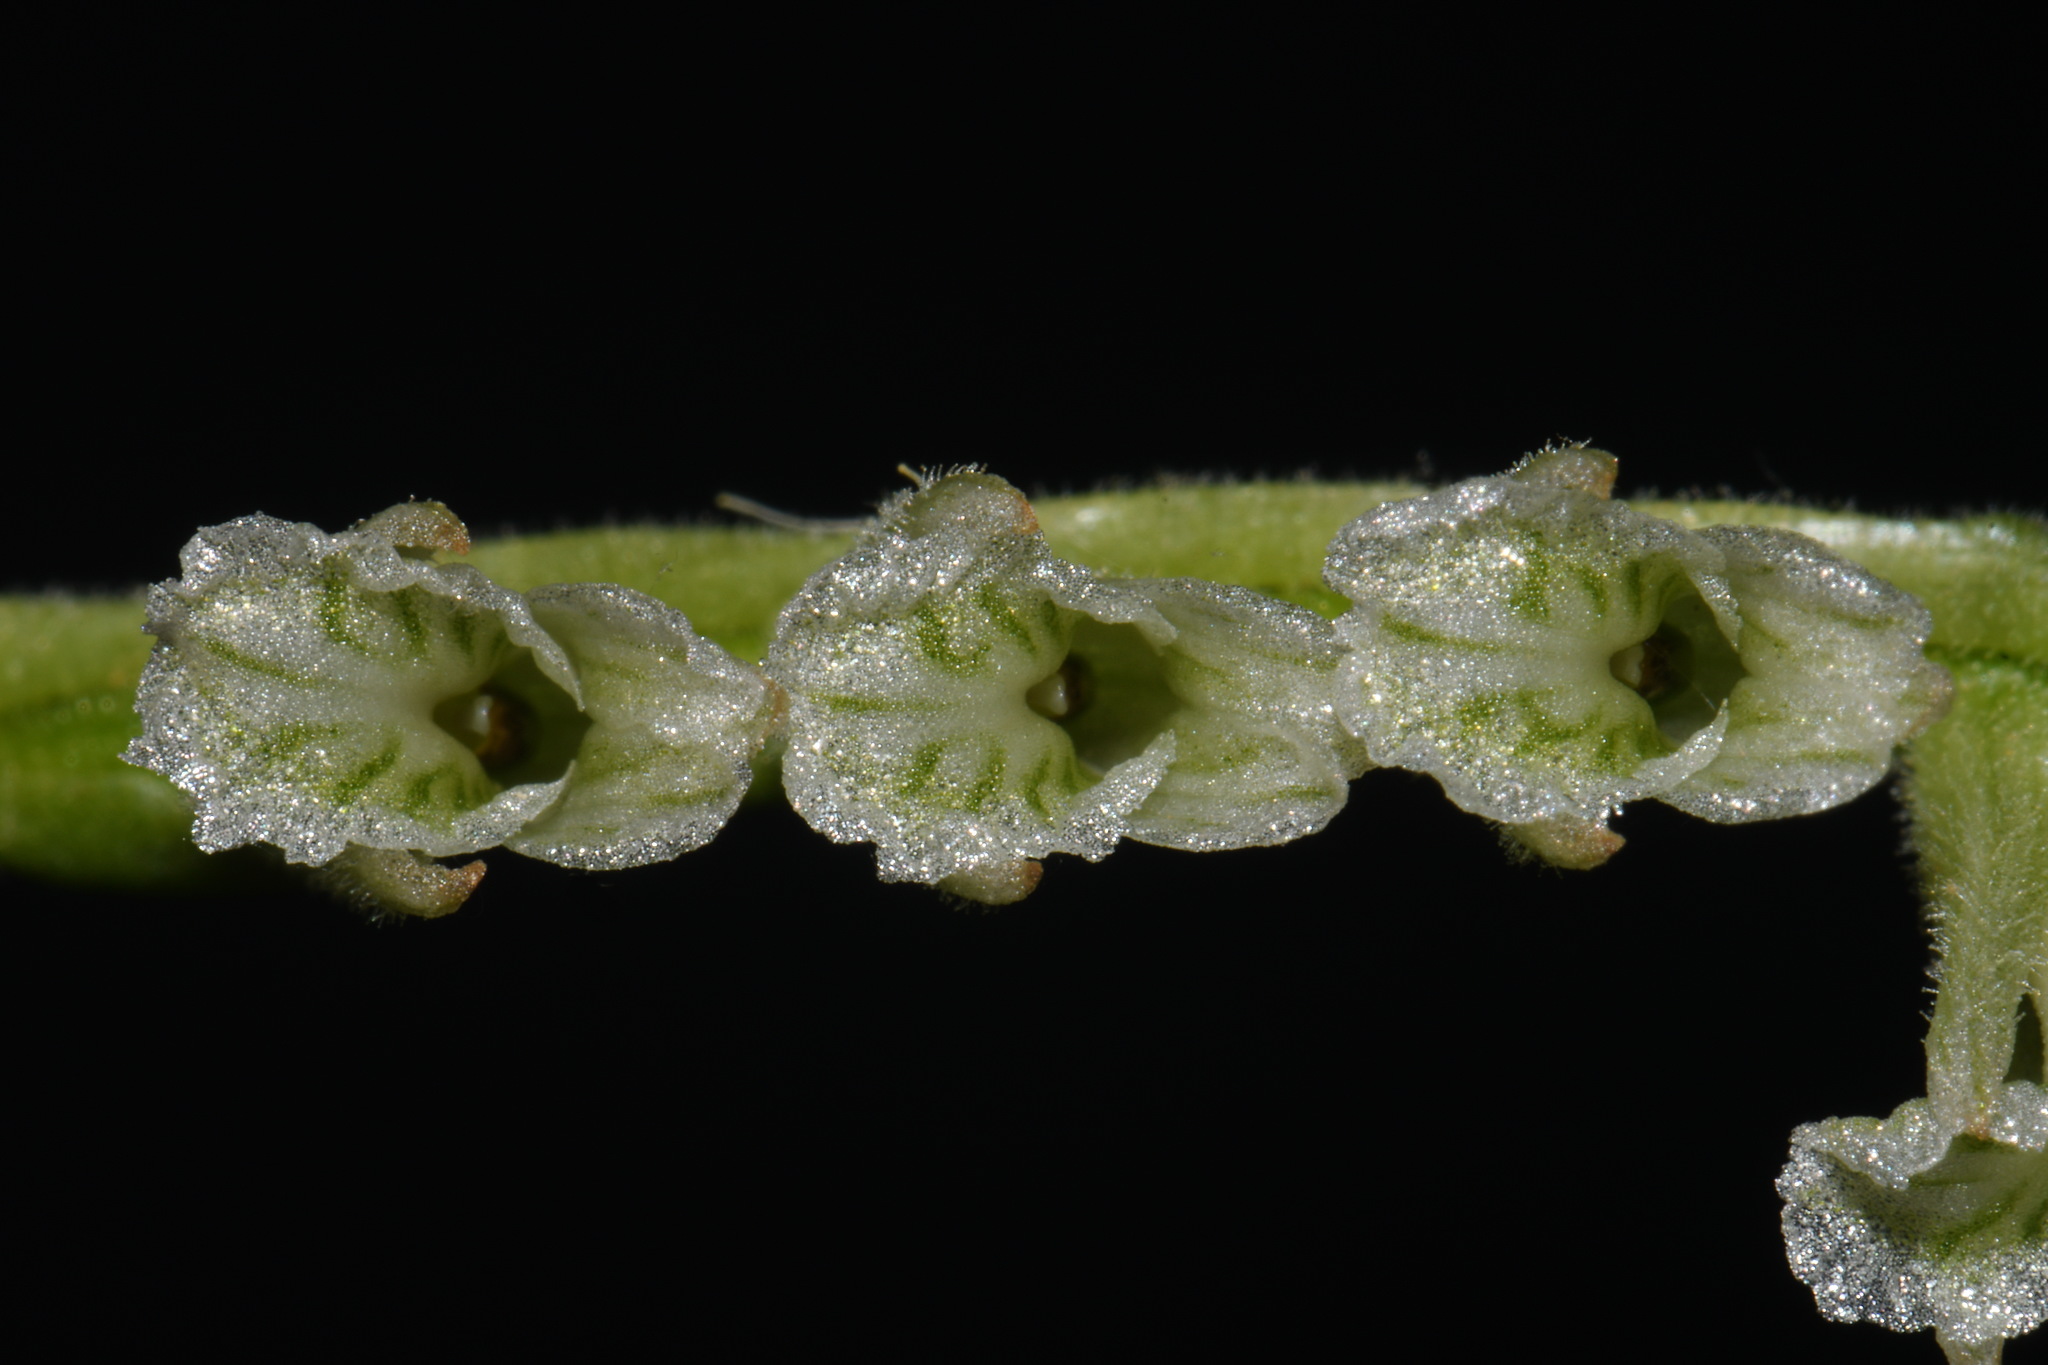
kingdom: Plantae
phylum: Tracheophyta
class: Liliopsida
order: Asparagales
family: Orchidaceae
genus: Spiranthes
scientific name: Spiranthes praecox
